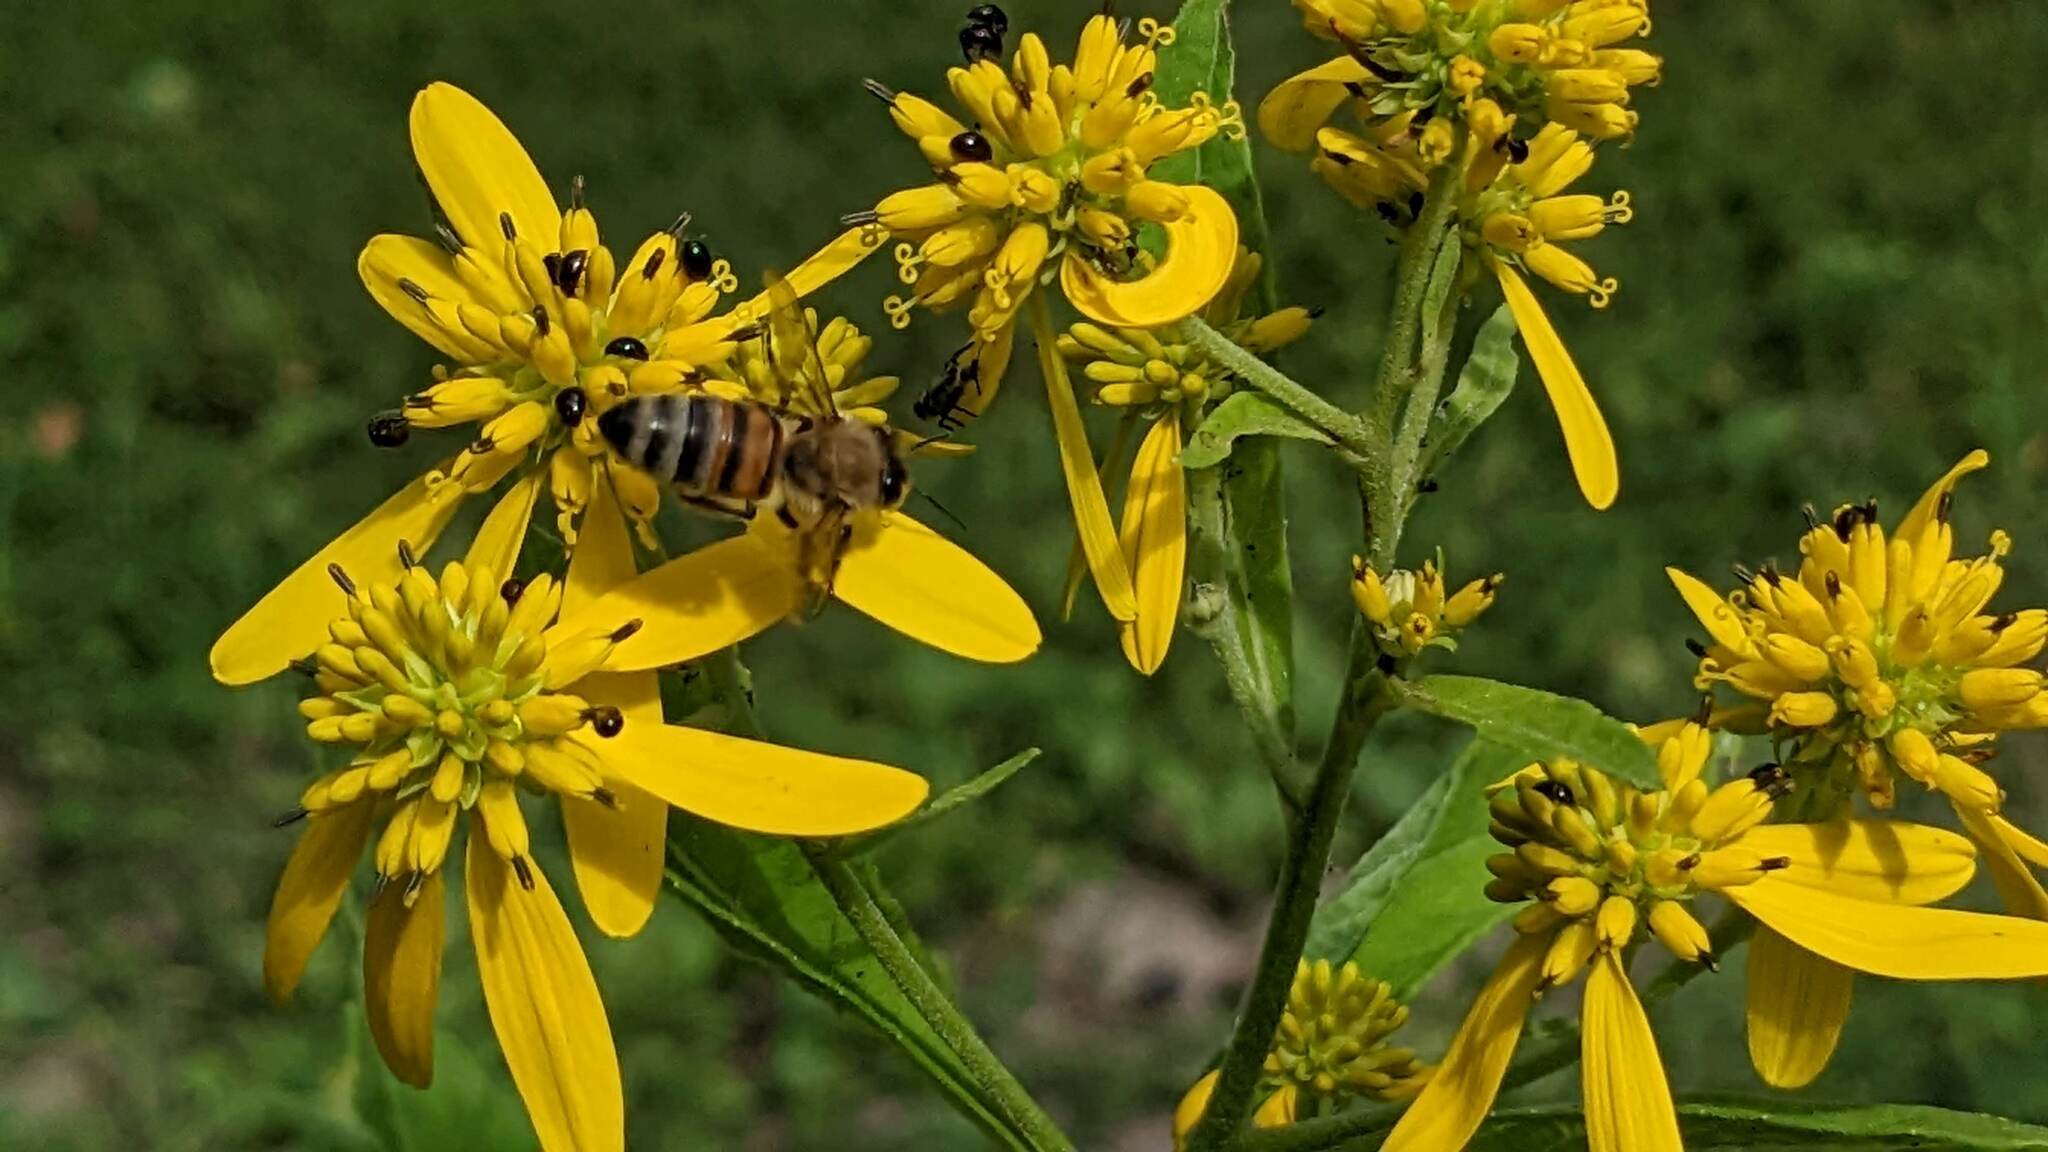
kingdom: Plantae
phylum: Tracheophyta
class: Magnoliopsida
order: Asterales
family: Asteraceae
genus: Verbesina
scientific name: Verbesina alternifolia
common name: Wingstem
